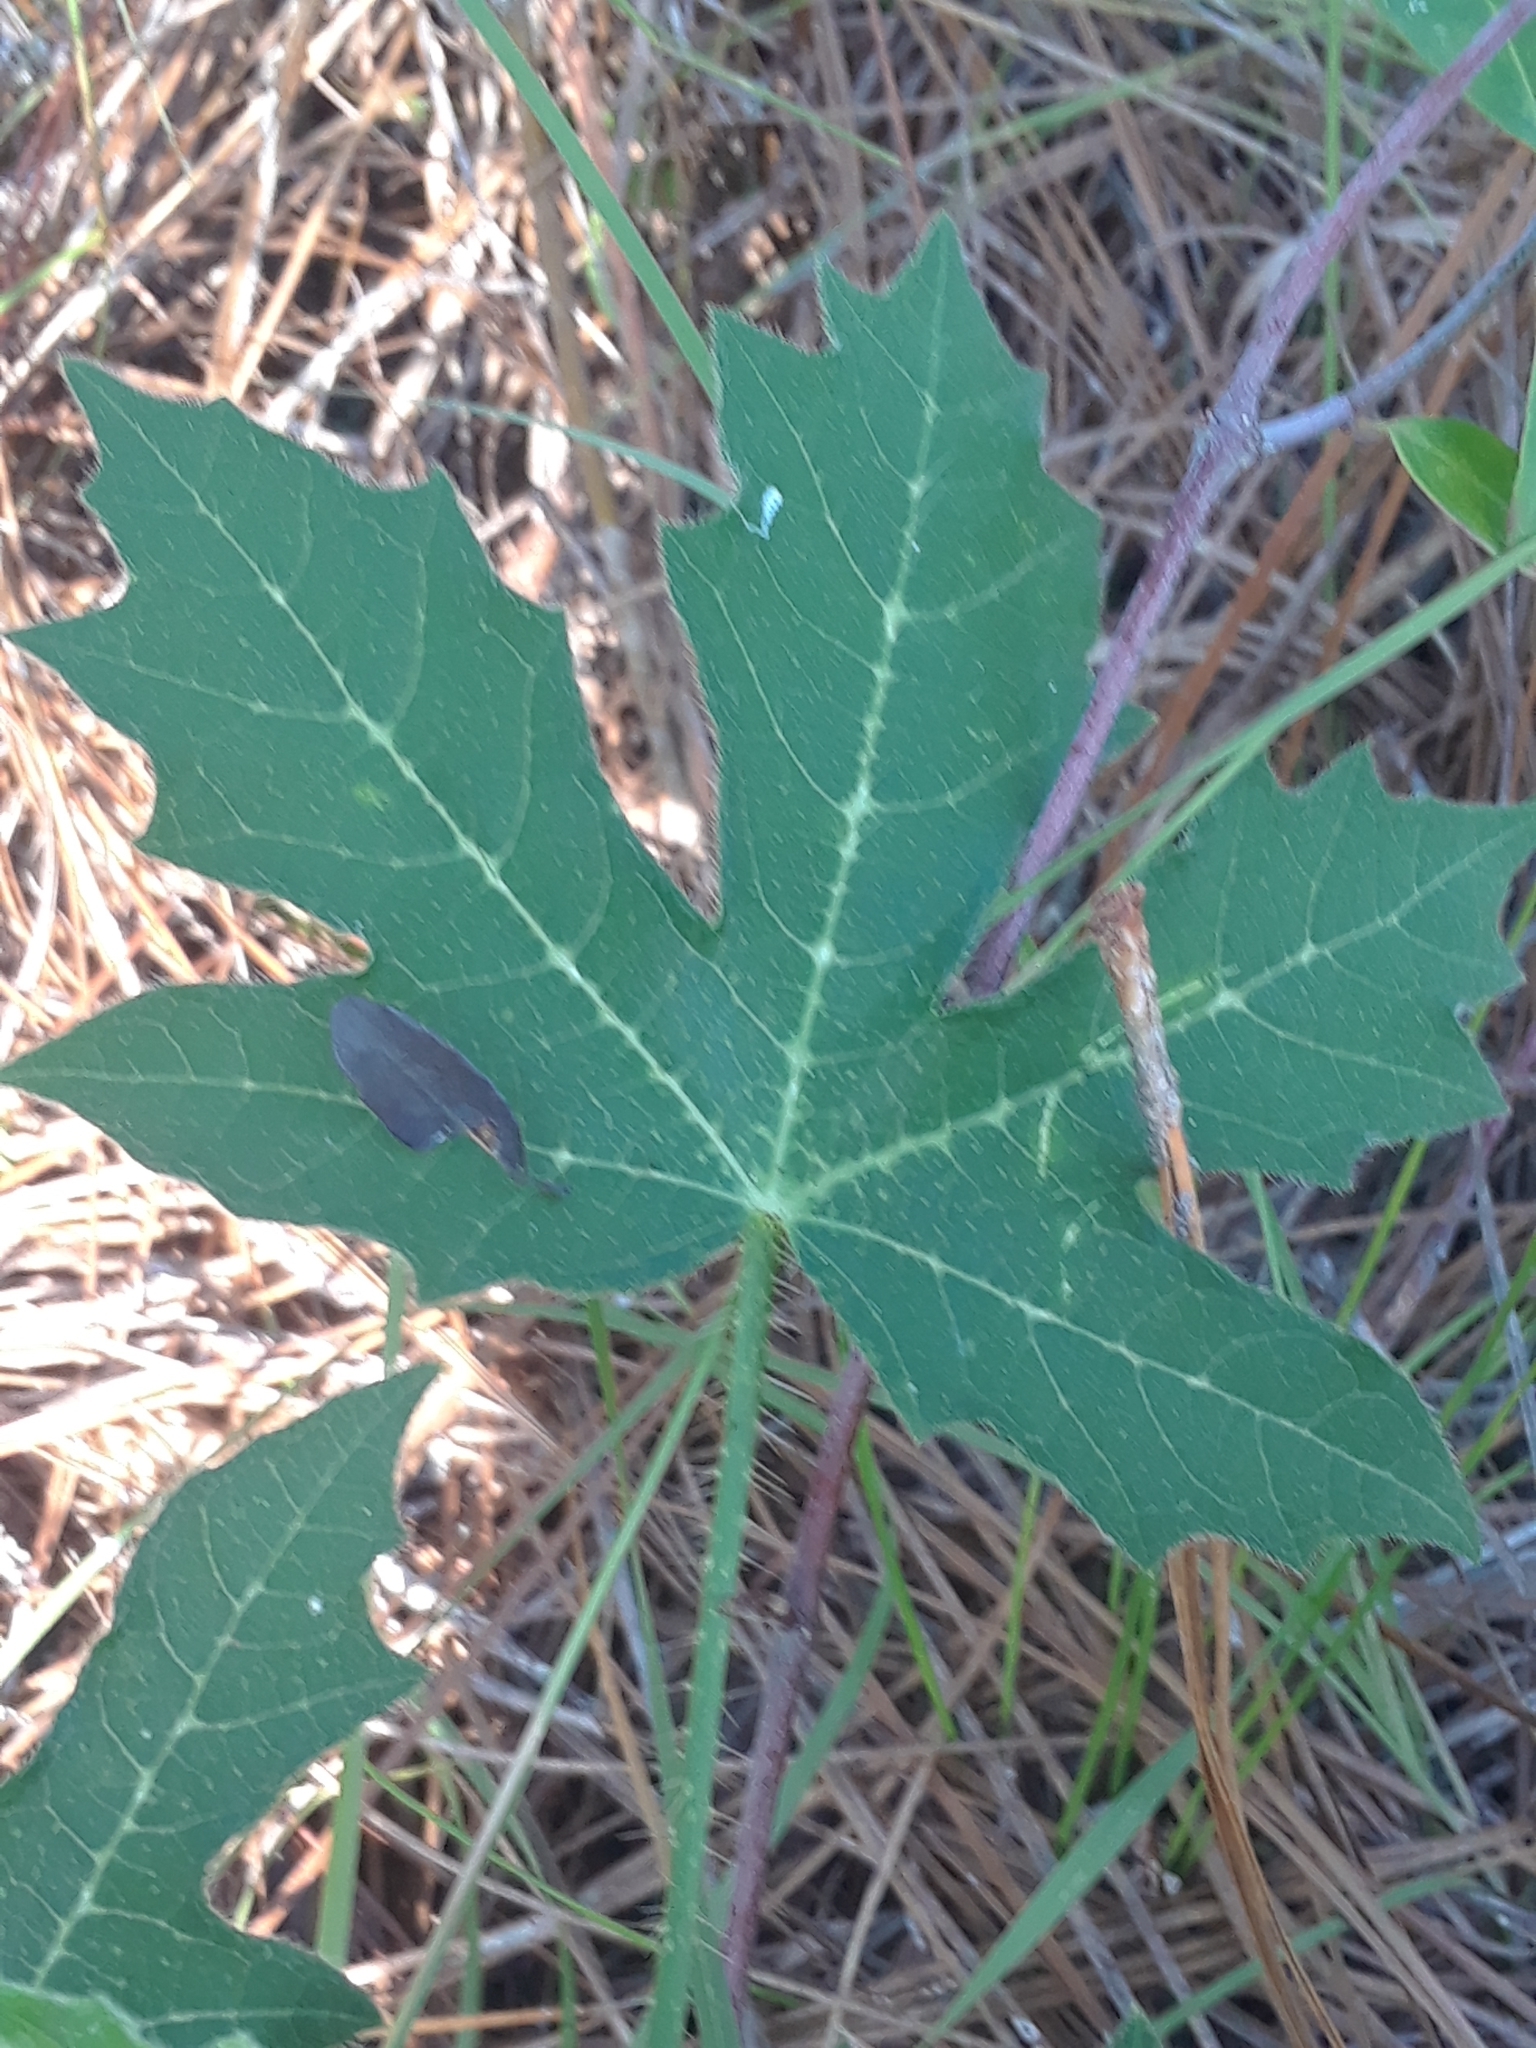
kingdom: Plantae
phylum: Tracheophyta
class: Magnoliopsida
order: Malpighiales
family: Euphorbiaceae
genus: Cnidoscolus
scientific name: Cnidoscolus stimulosus
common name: Bull-nettle
